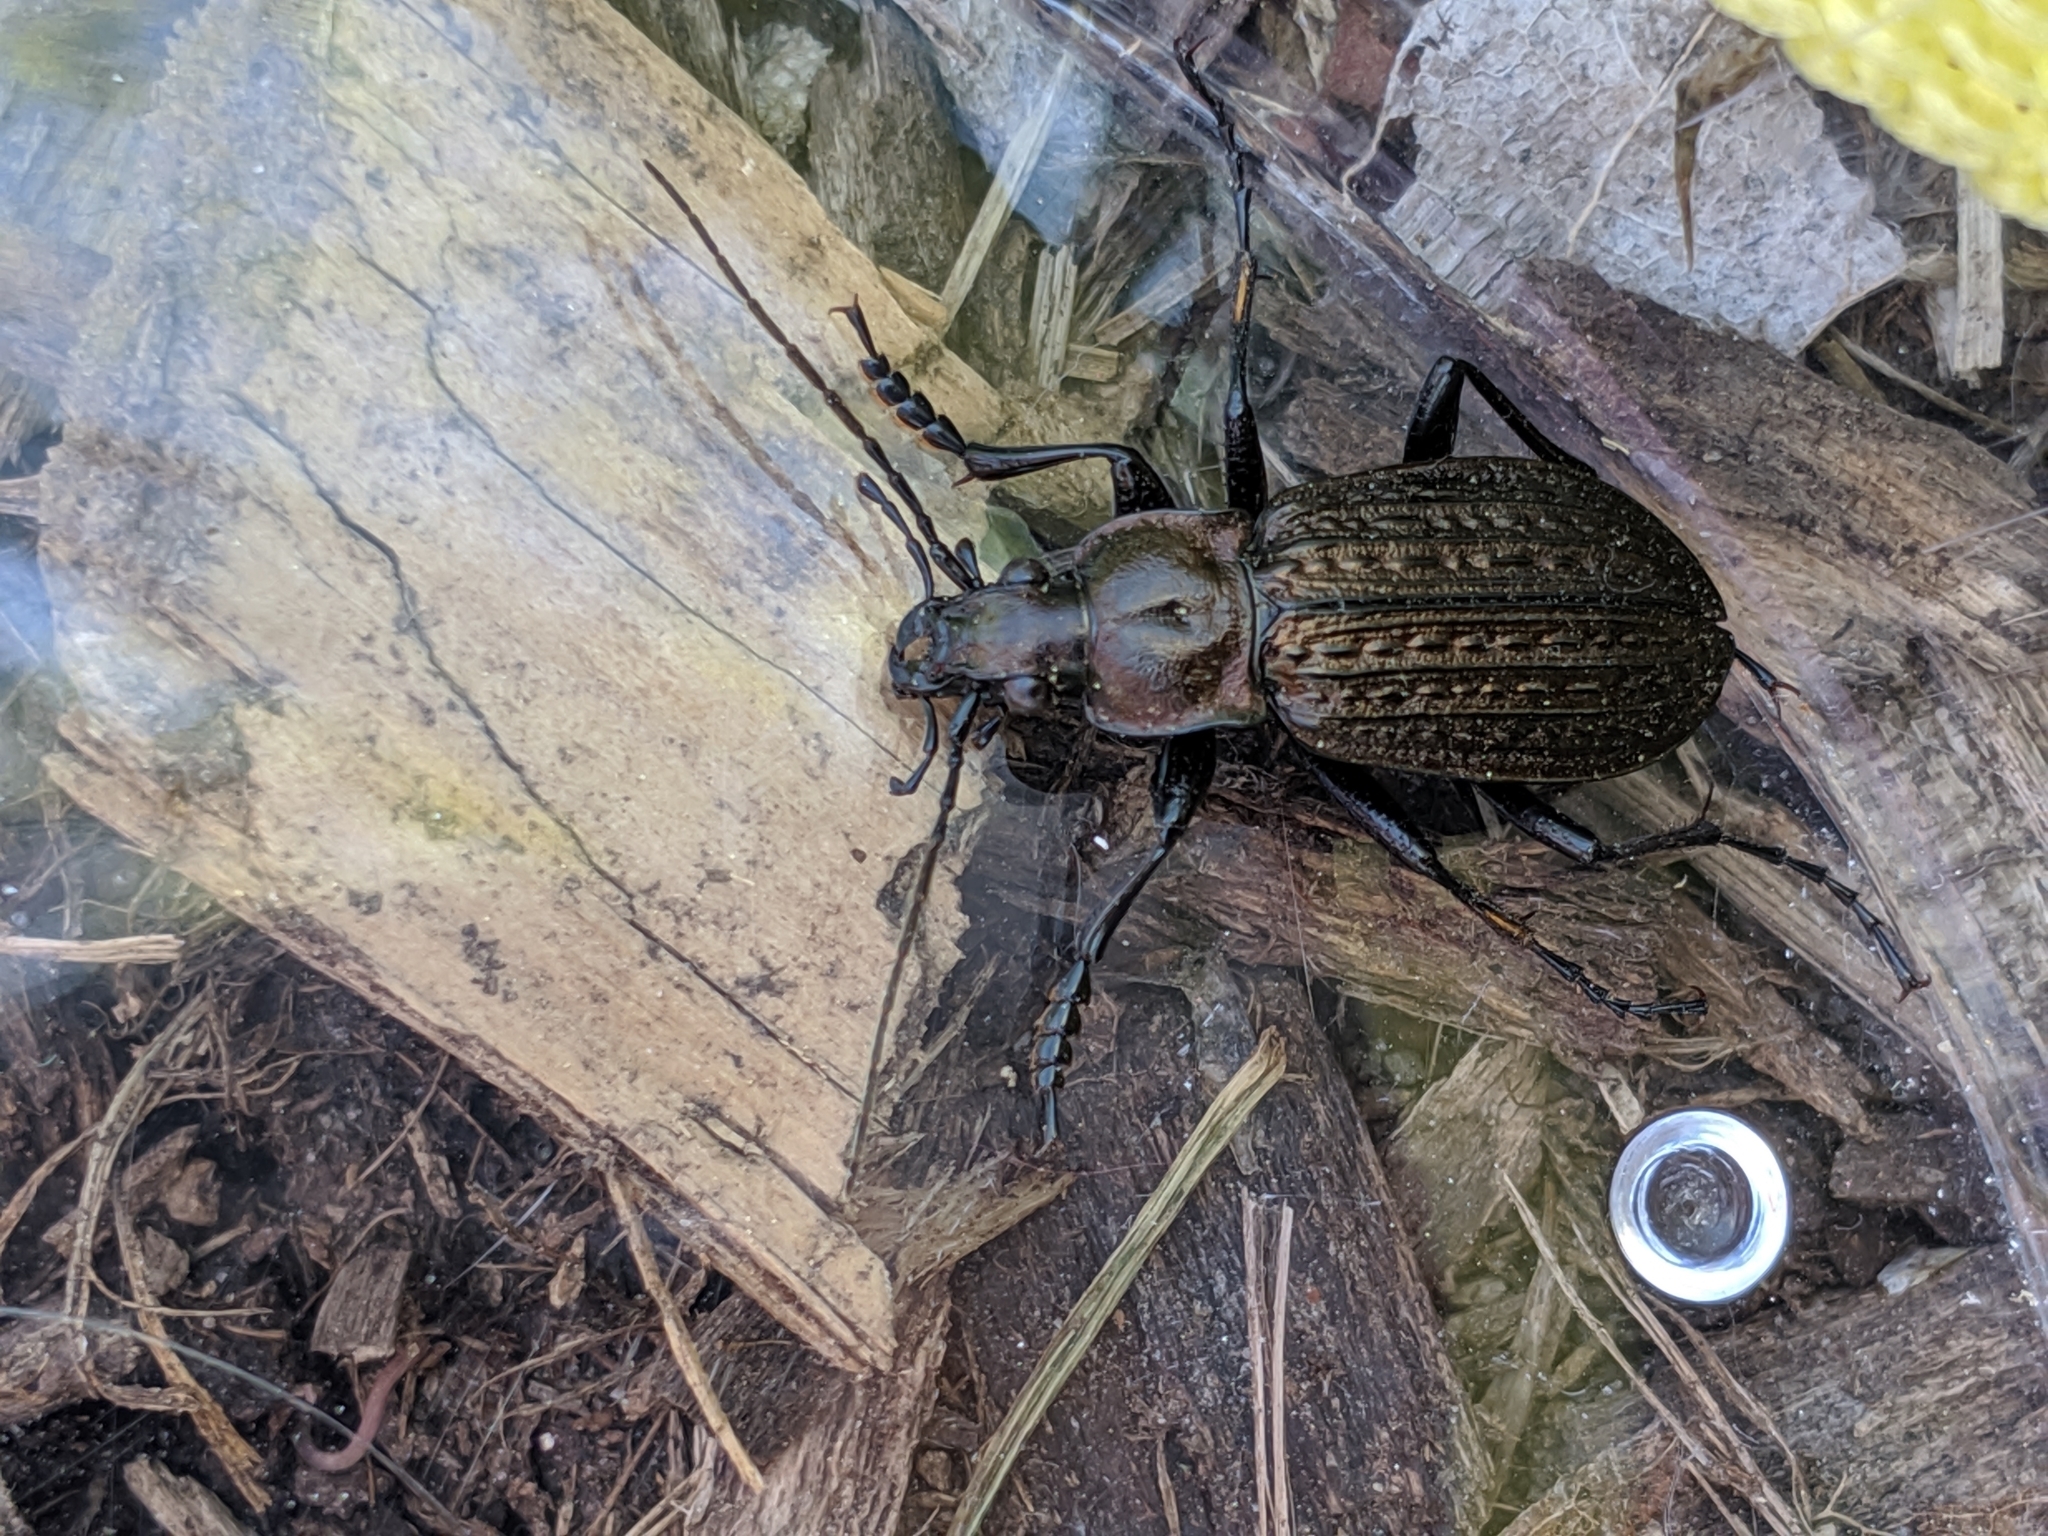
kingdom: Animalia
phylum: Arthropoda
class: Insecta
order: Coleoptera
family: Carabidae
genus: Carabus
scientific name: Carabus granulatus
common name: Granulate ground beetle
